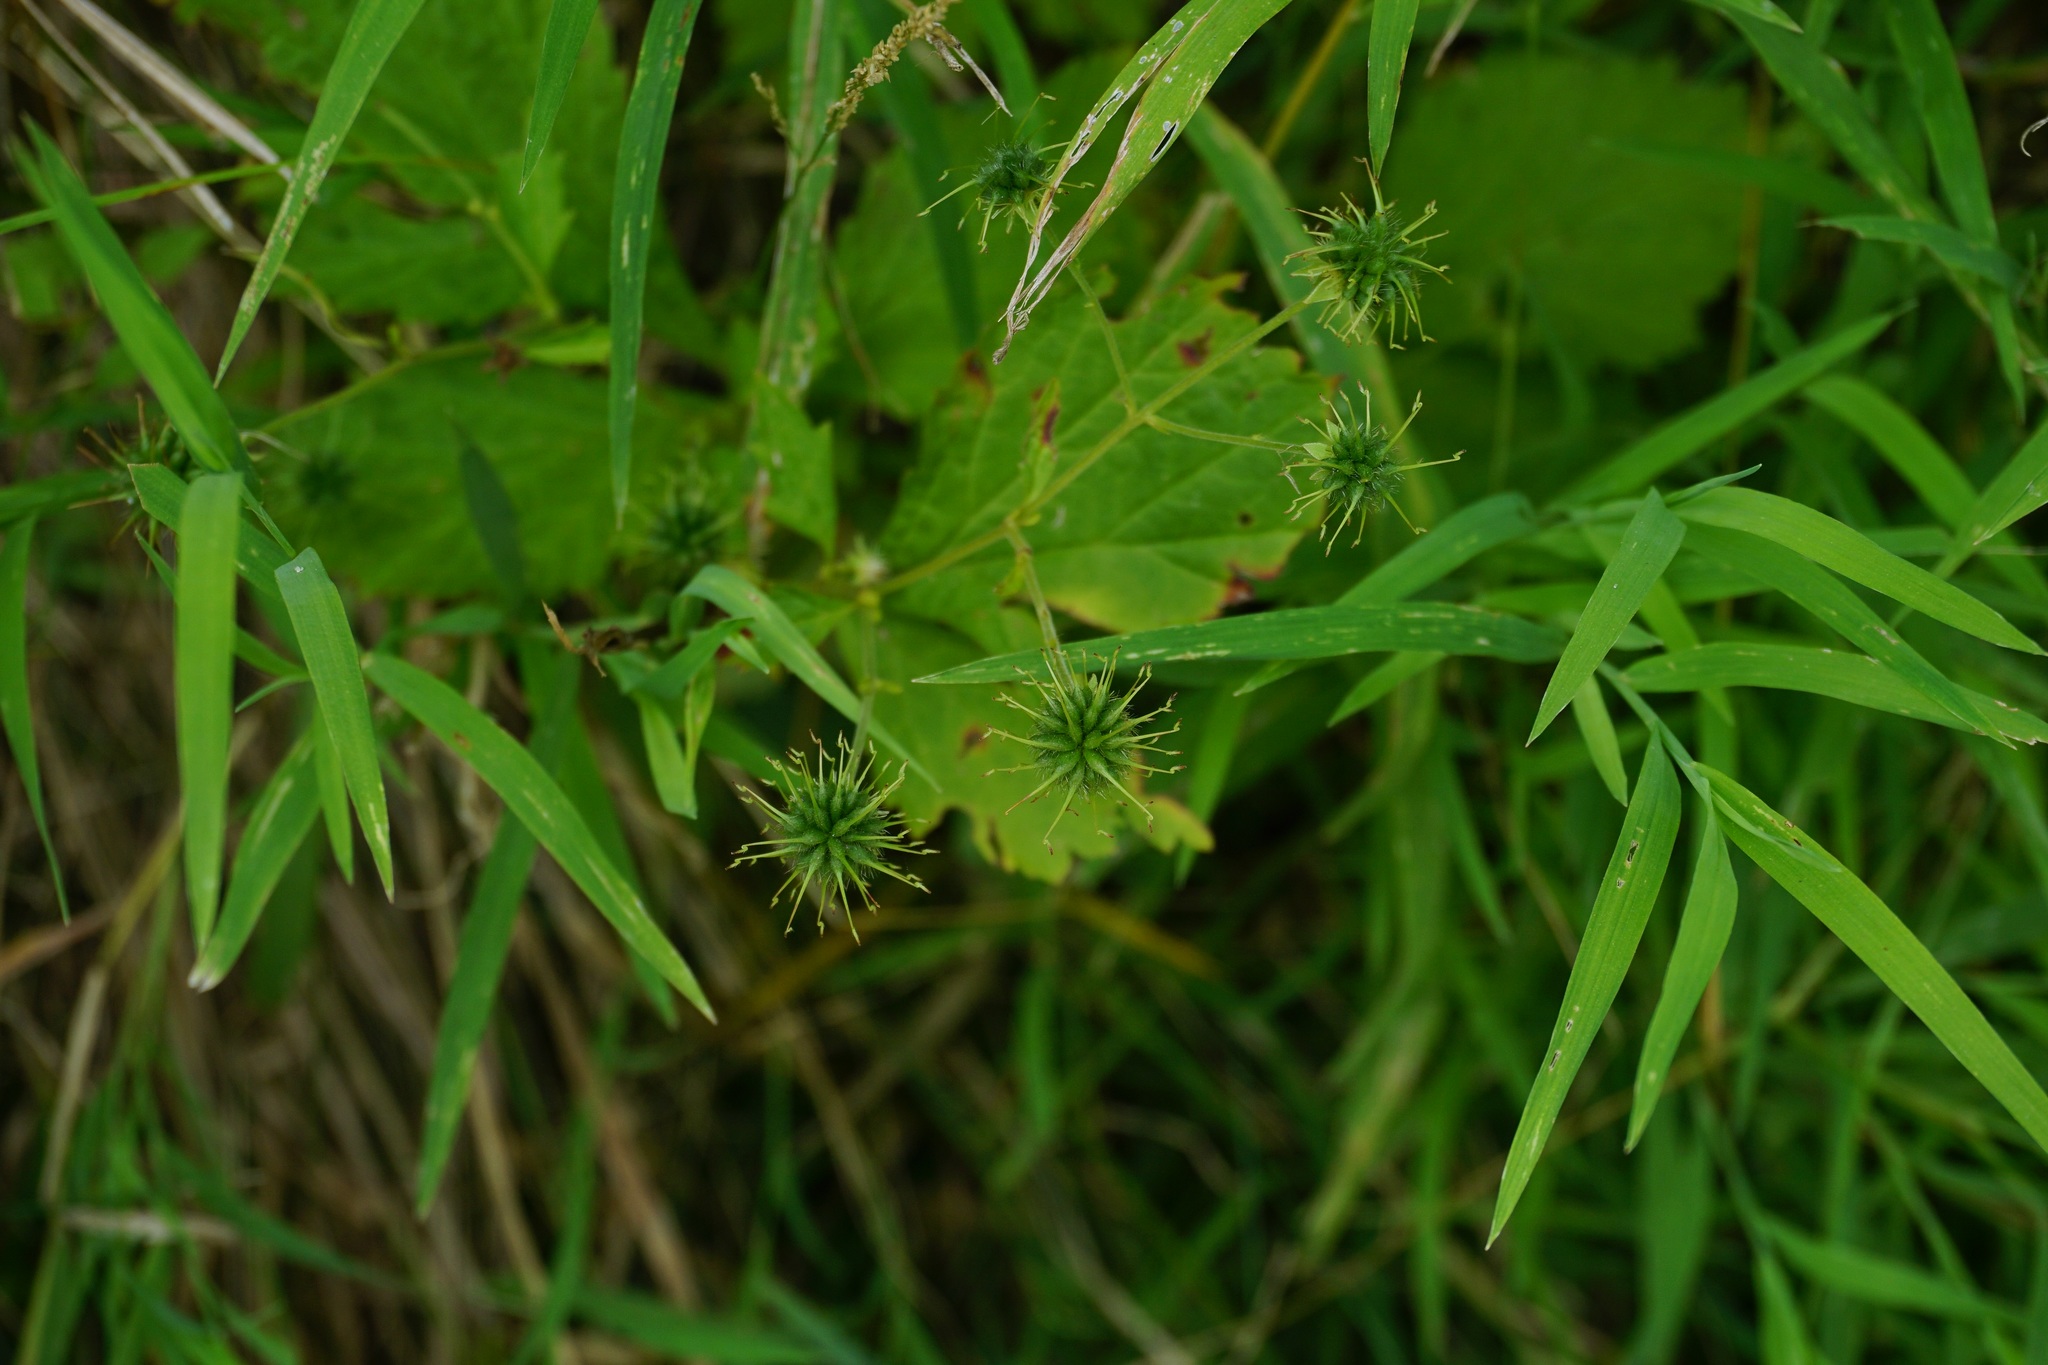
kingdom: Plantae
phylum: Tracheophyta
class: Magnoliopsida
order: Rosales
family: Rosaceae
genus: Geum
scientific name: Geum canadense
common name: White avens
